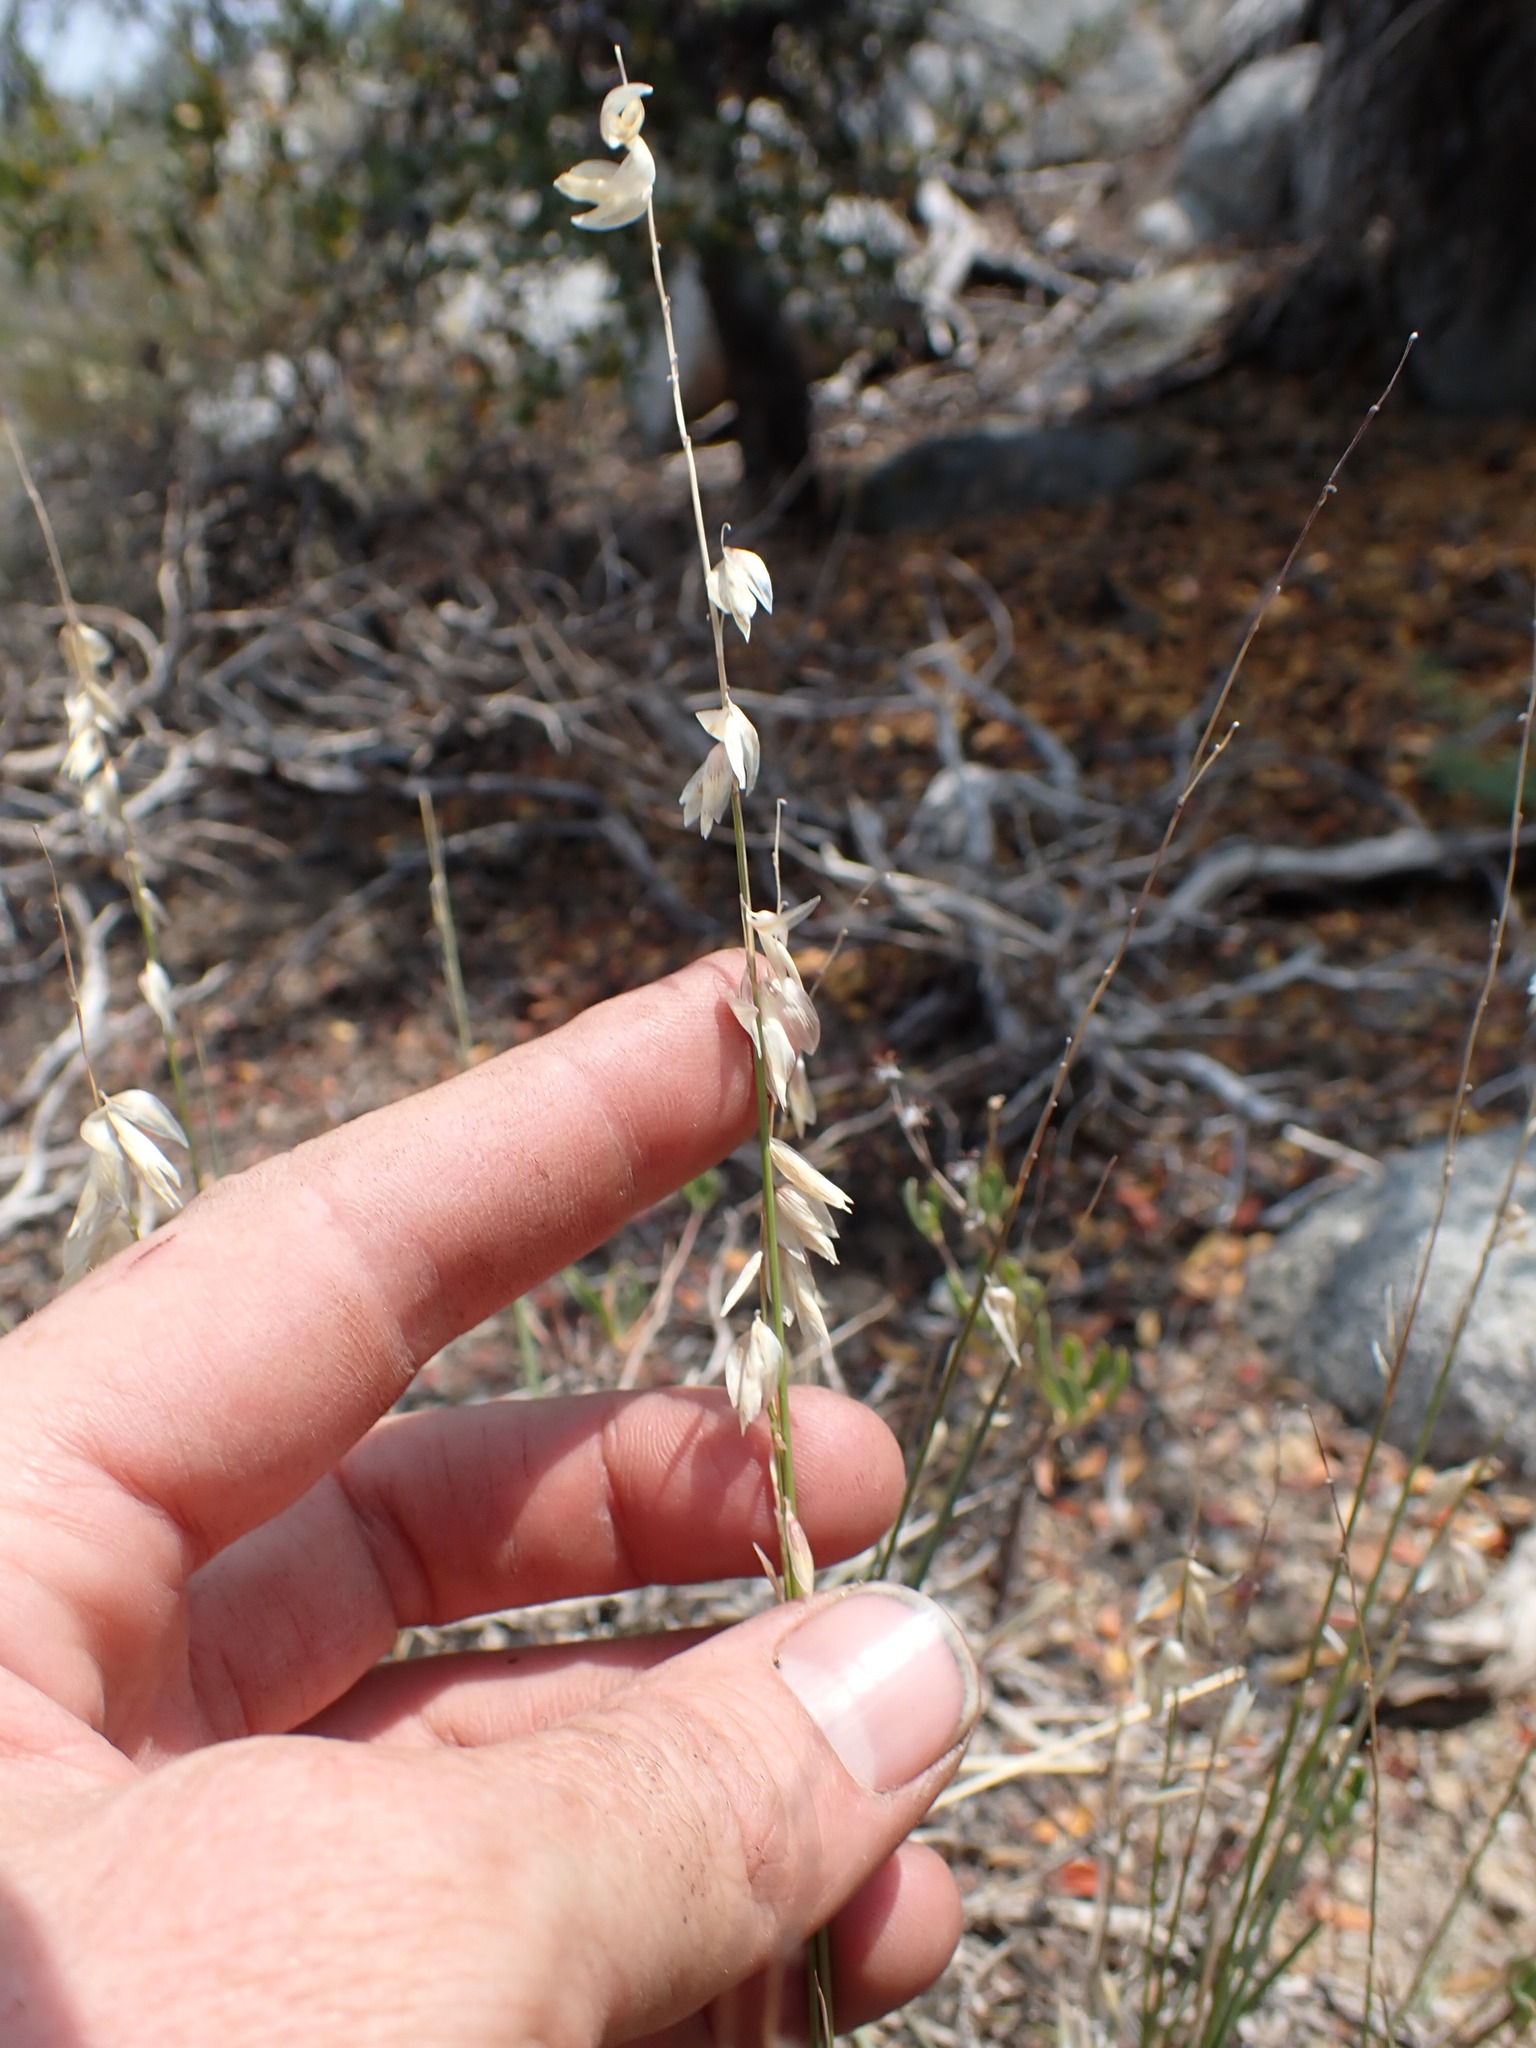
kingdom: Plantae
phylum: Tracheophyta
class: Liliopsida
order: Poales
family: Poaceae
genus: Melica
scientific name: Melica stricta
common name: Rock melic
